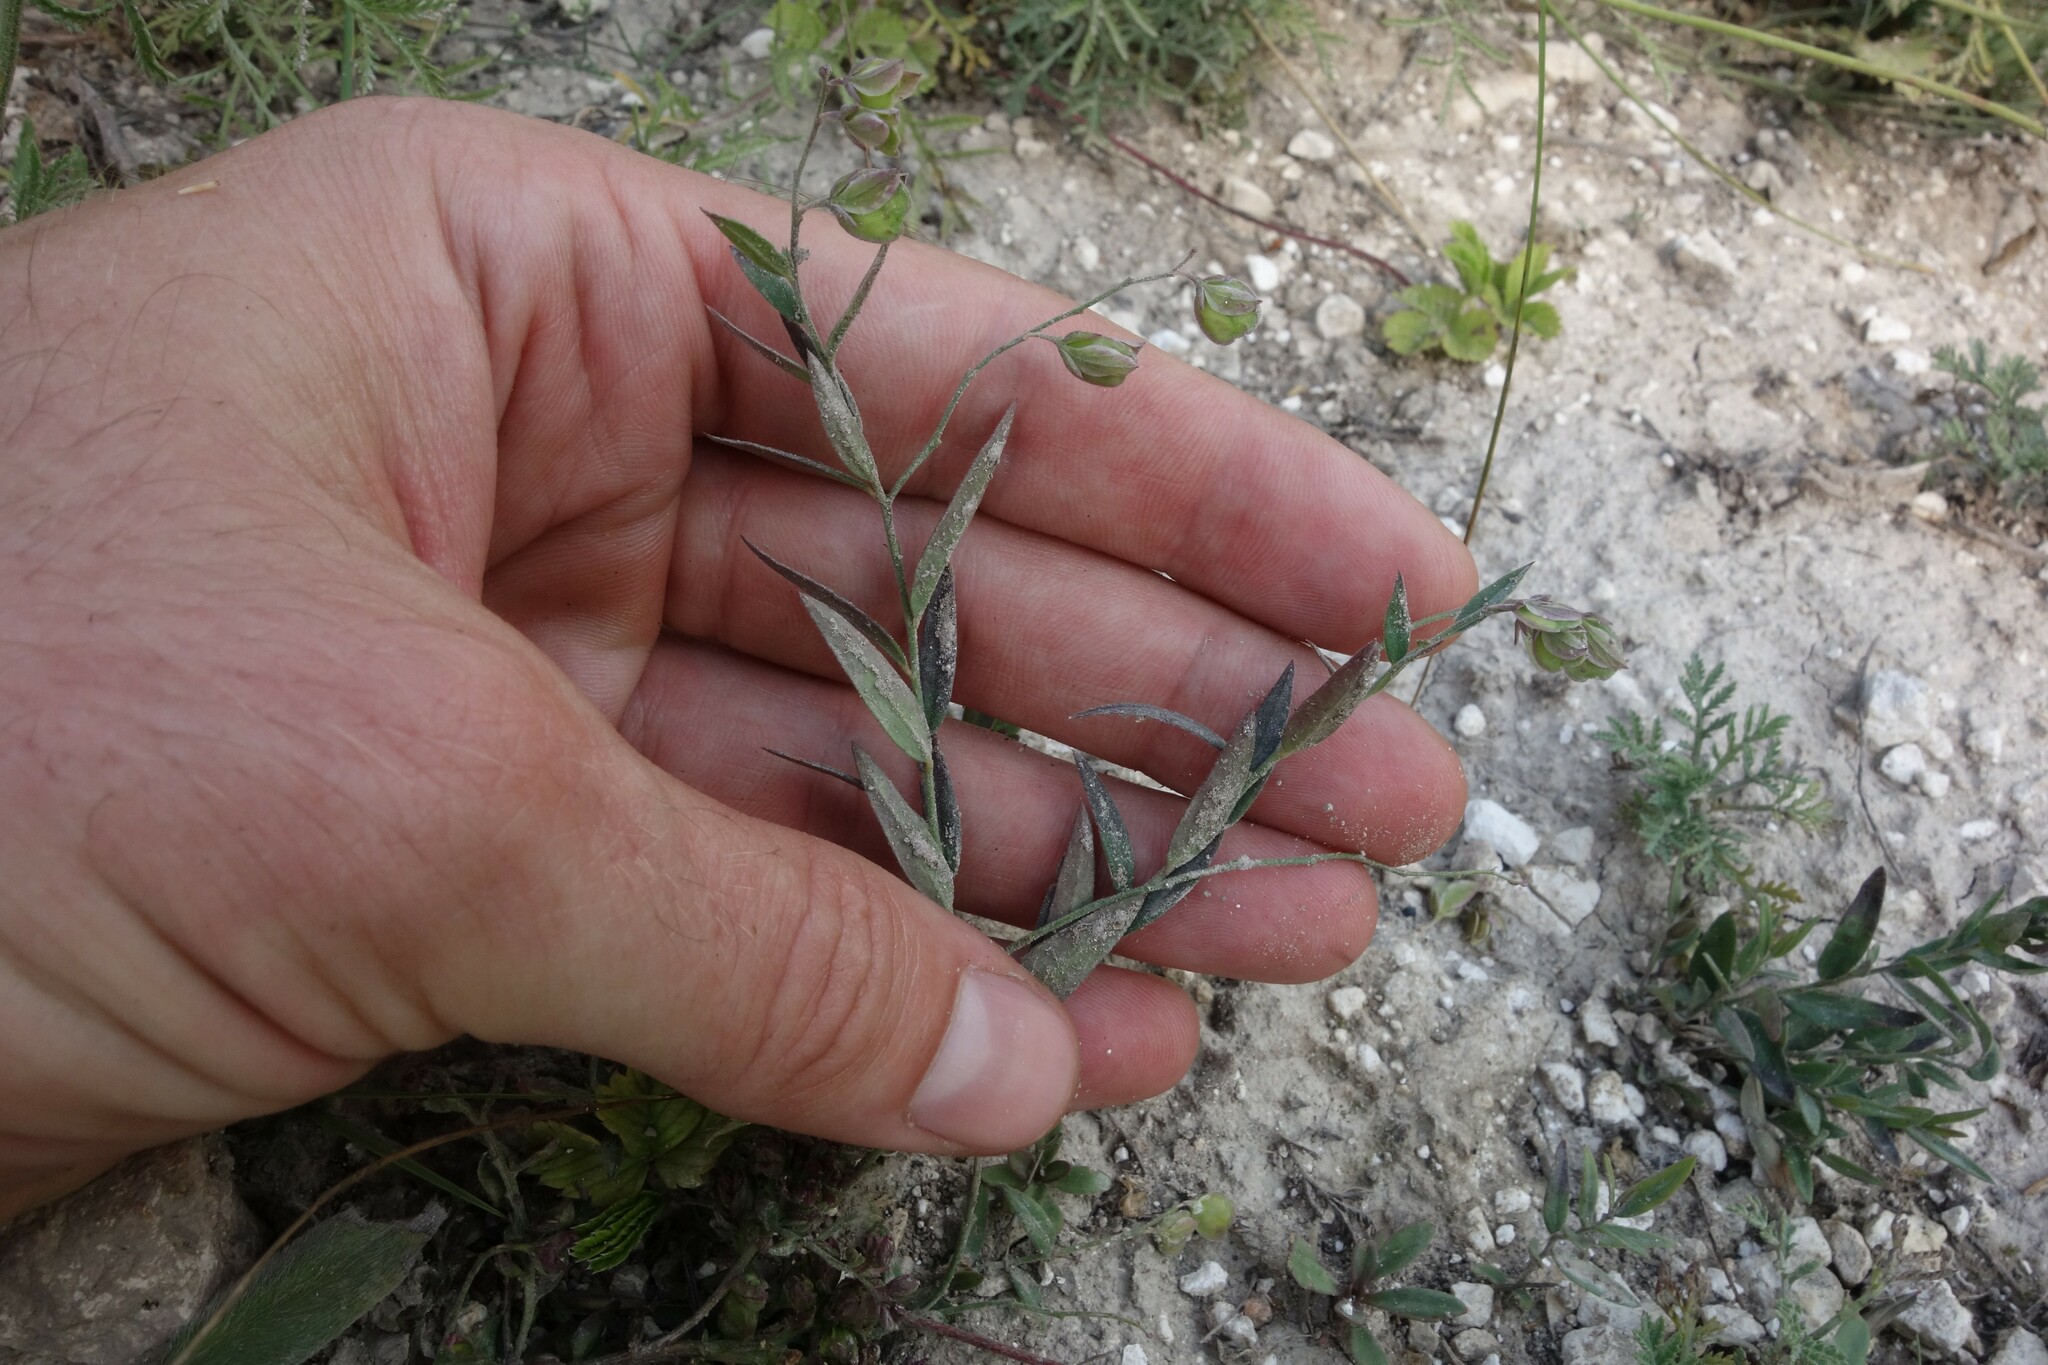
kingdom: Plantae
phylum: Tracheophyta
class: Magnoliopsida
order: Fabales
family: Polygalaceae
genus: Polygala
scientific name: Polygala sibirica
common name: Siberian polygala
